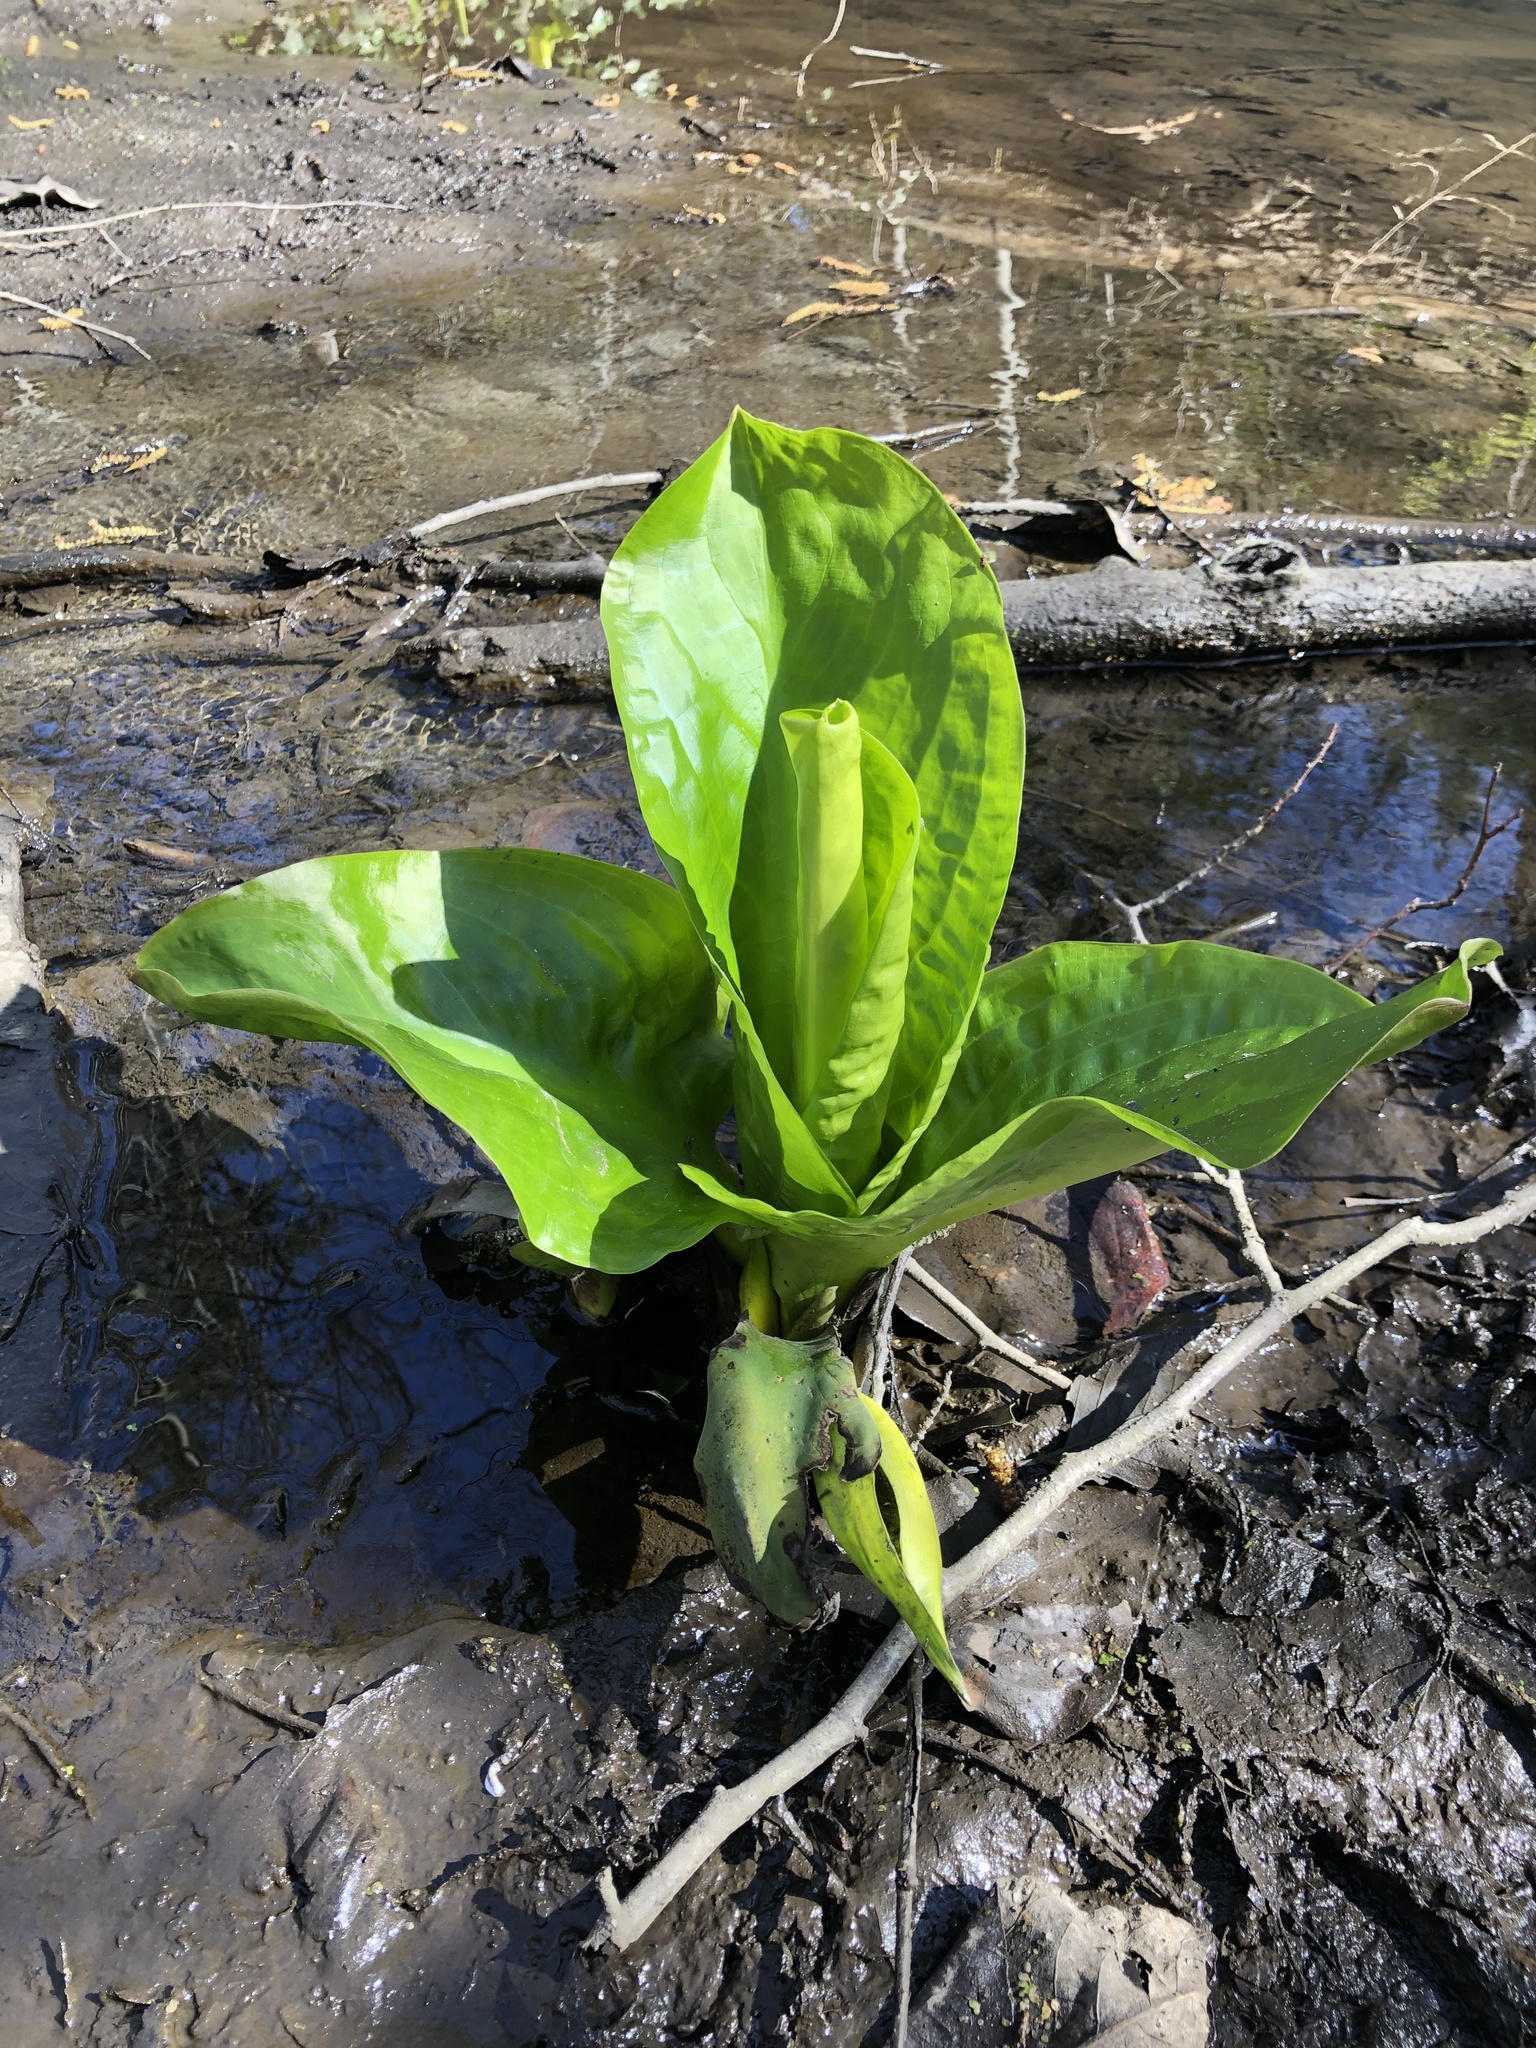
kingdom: Plantae
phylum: Tracheophyta
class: Liliopsida
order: Alismatales
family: Araceae
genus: Lysichiton
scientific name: Lysichiton americanus
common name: American skunk cabbage
